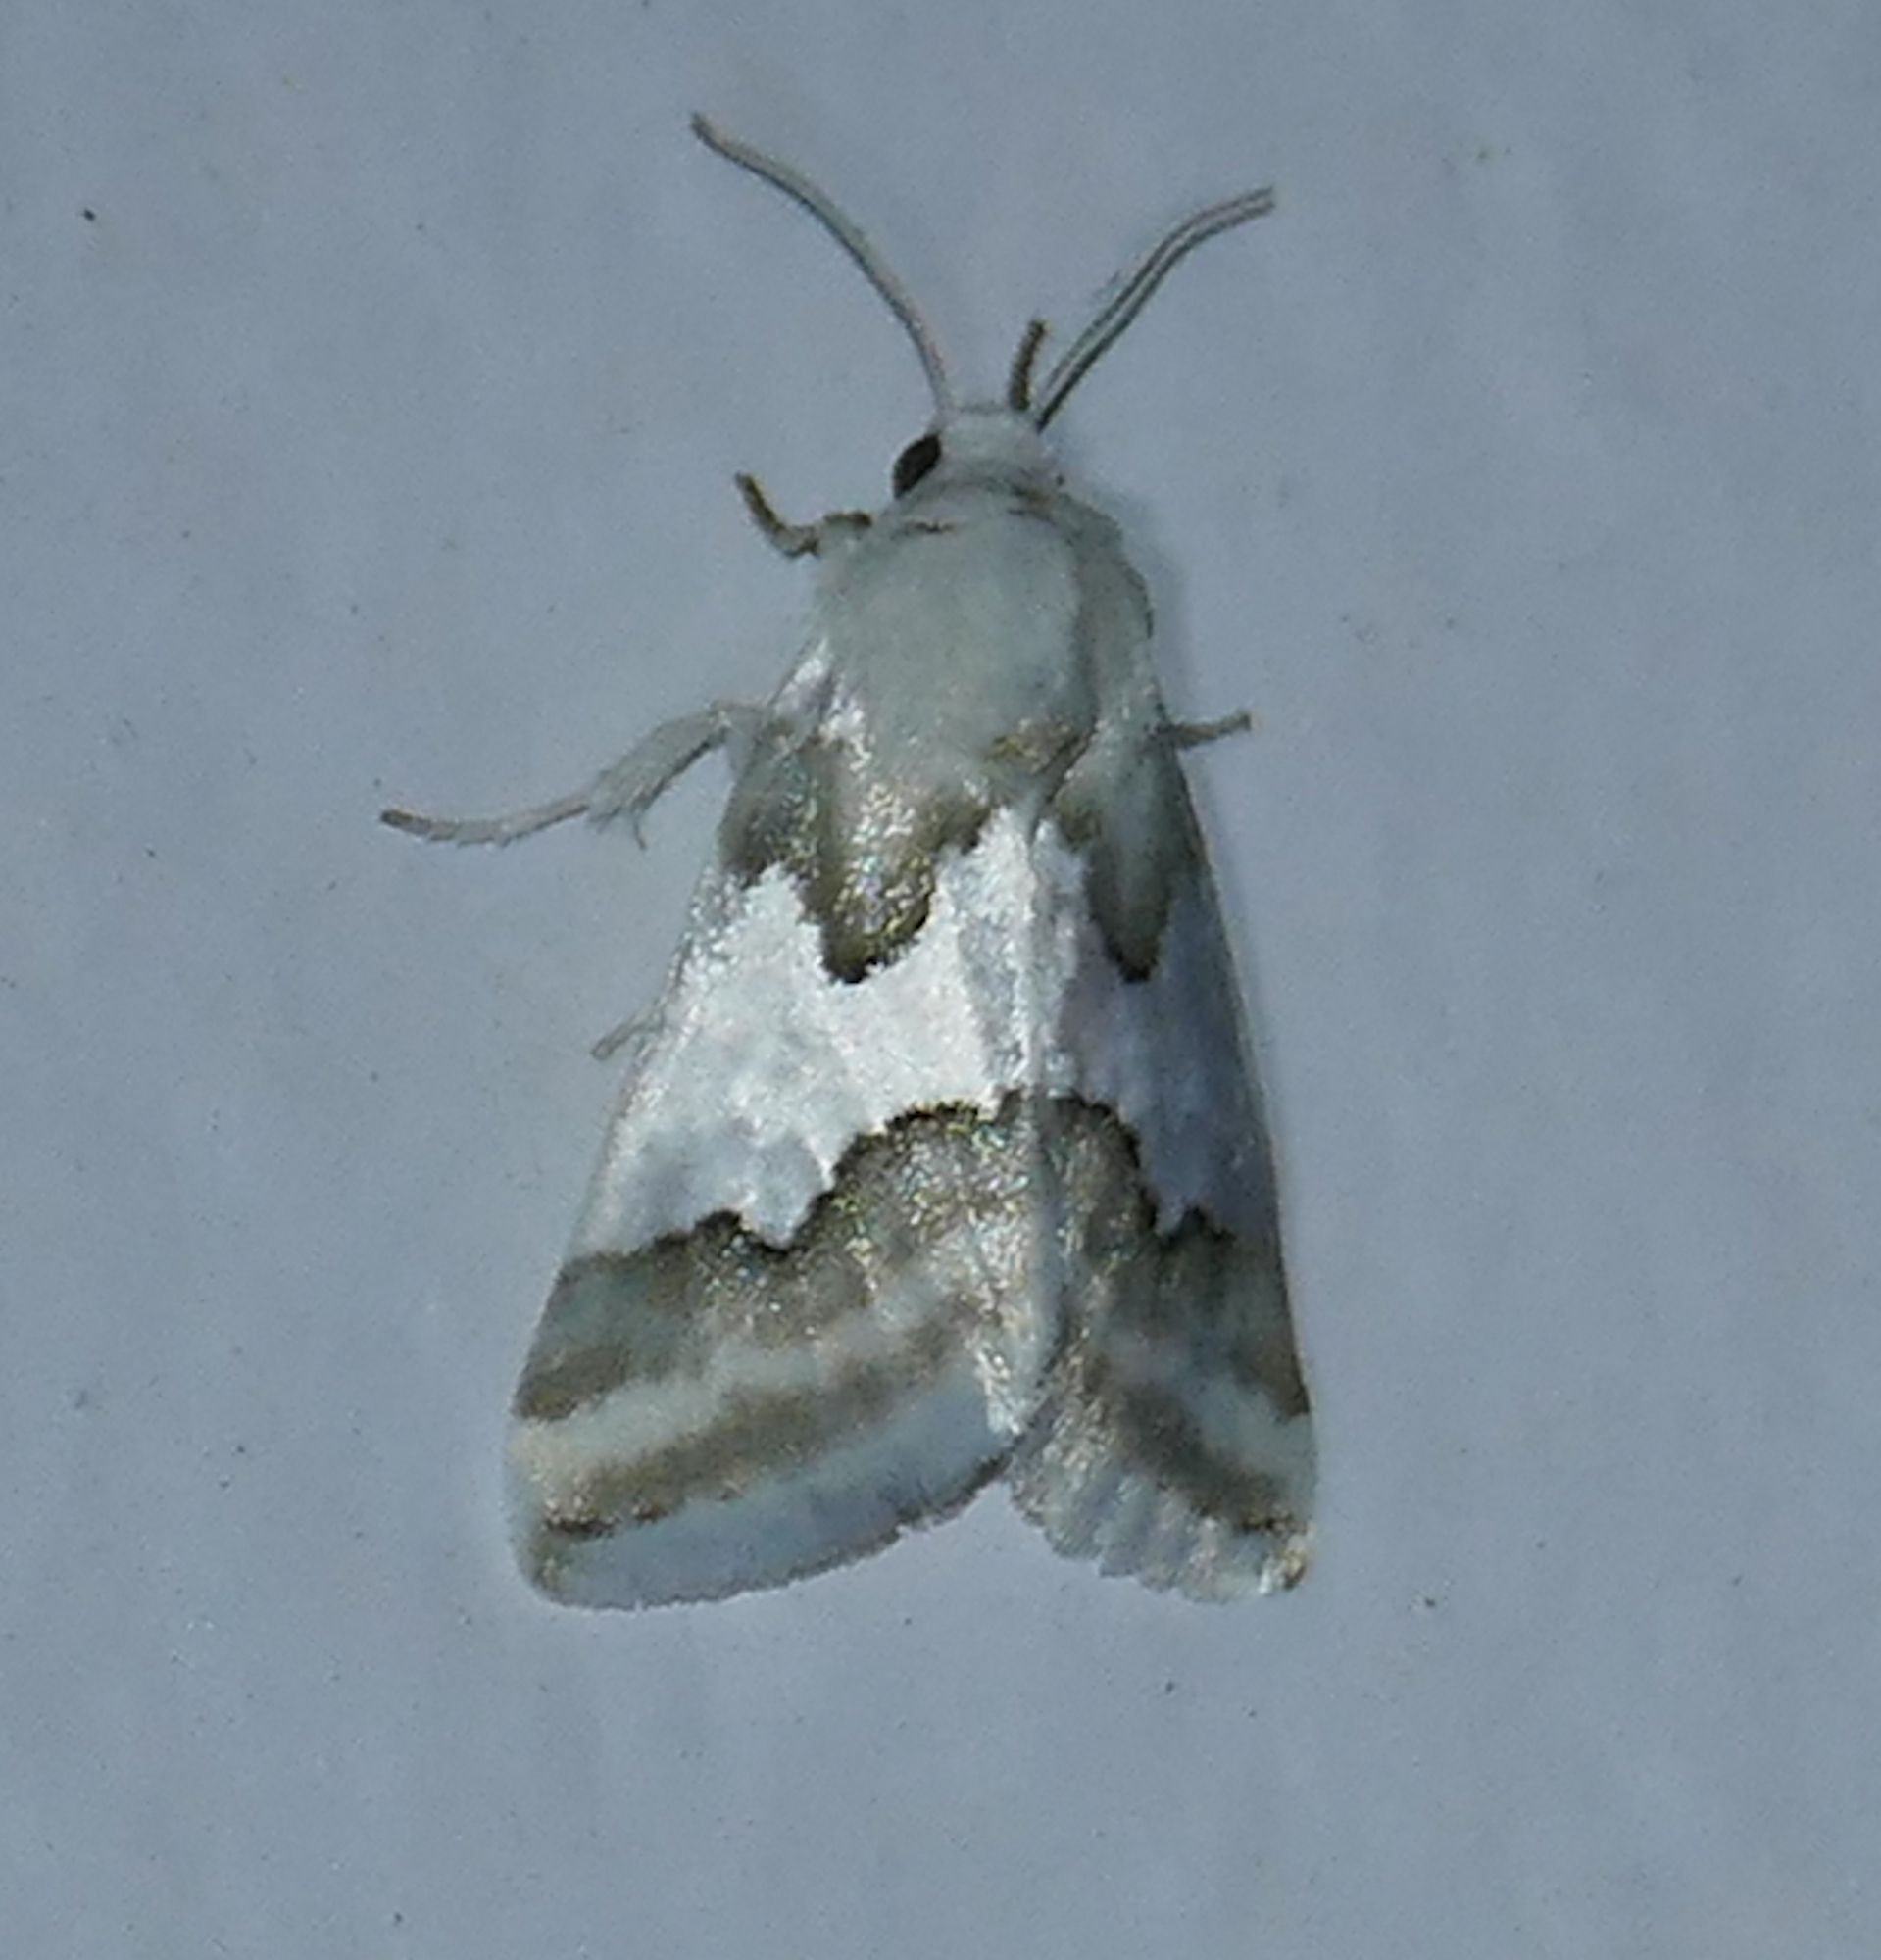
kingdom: Animalia
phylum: Arthropoda
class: Insecta
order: Lepidoptera
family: Noctuidae
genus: Schinia
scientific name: Schinia hulstia
